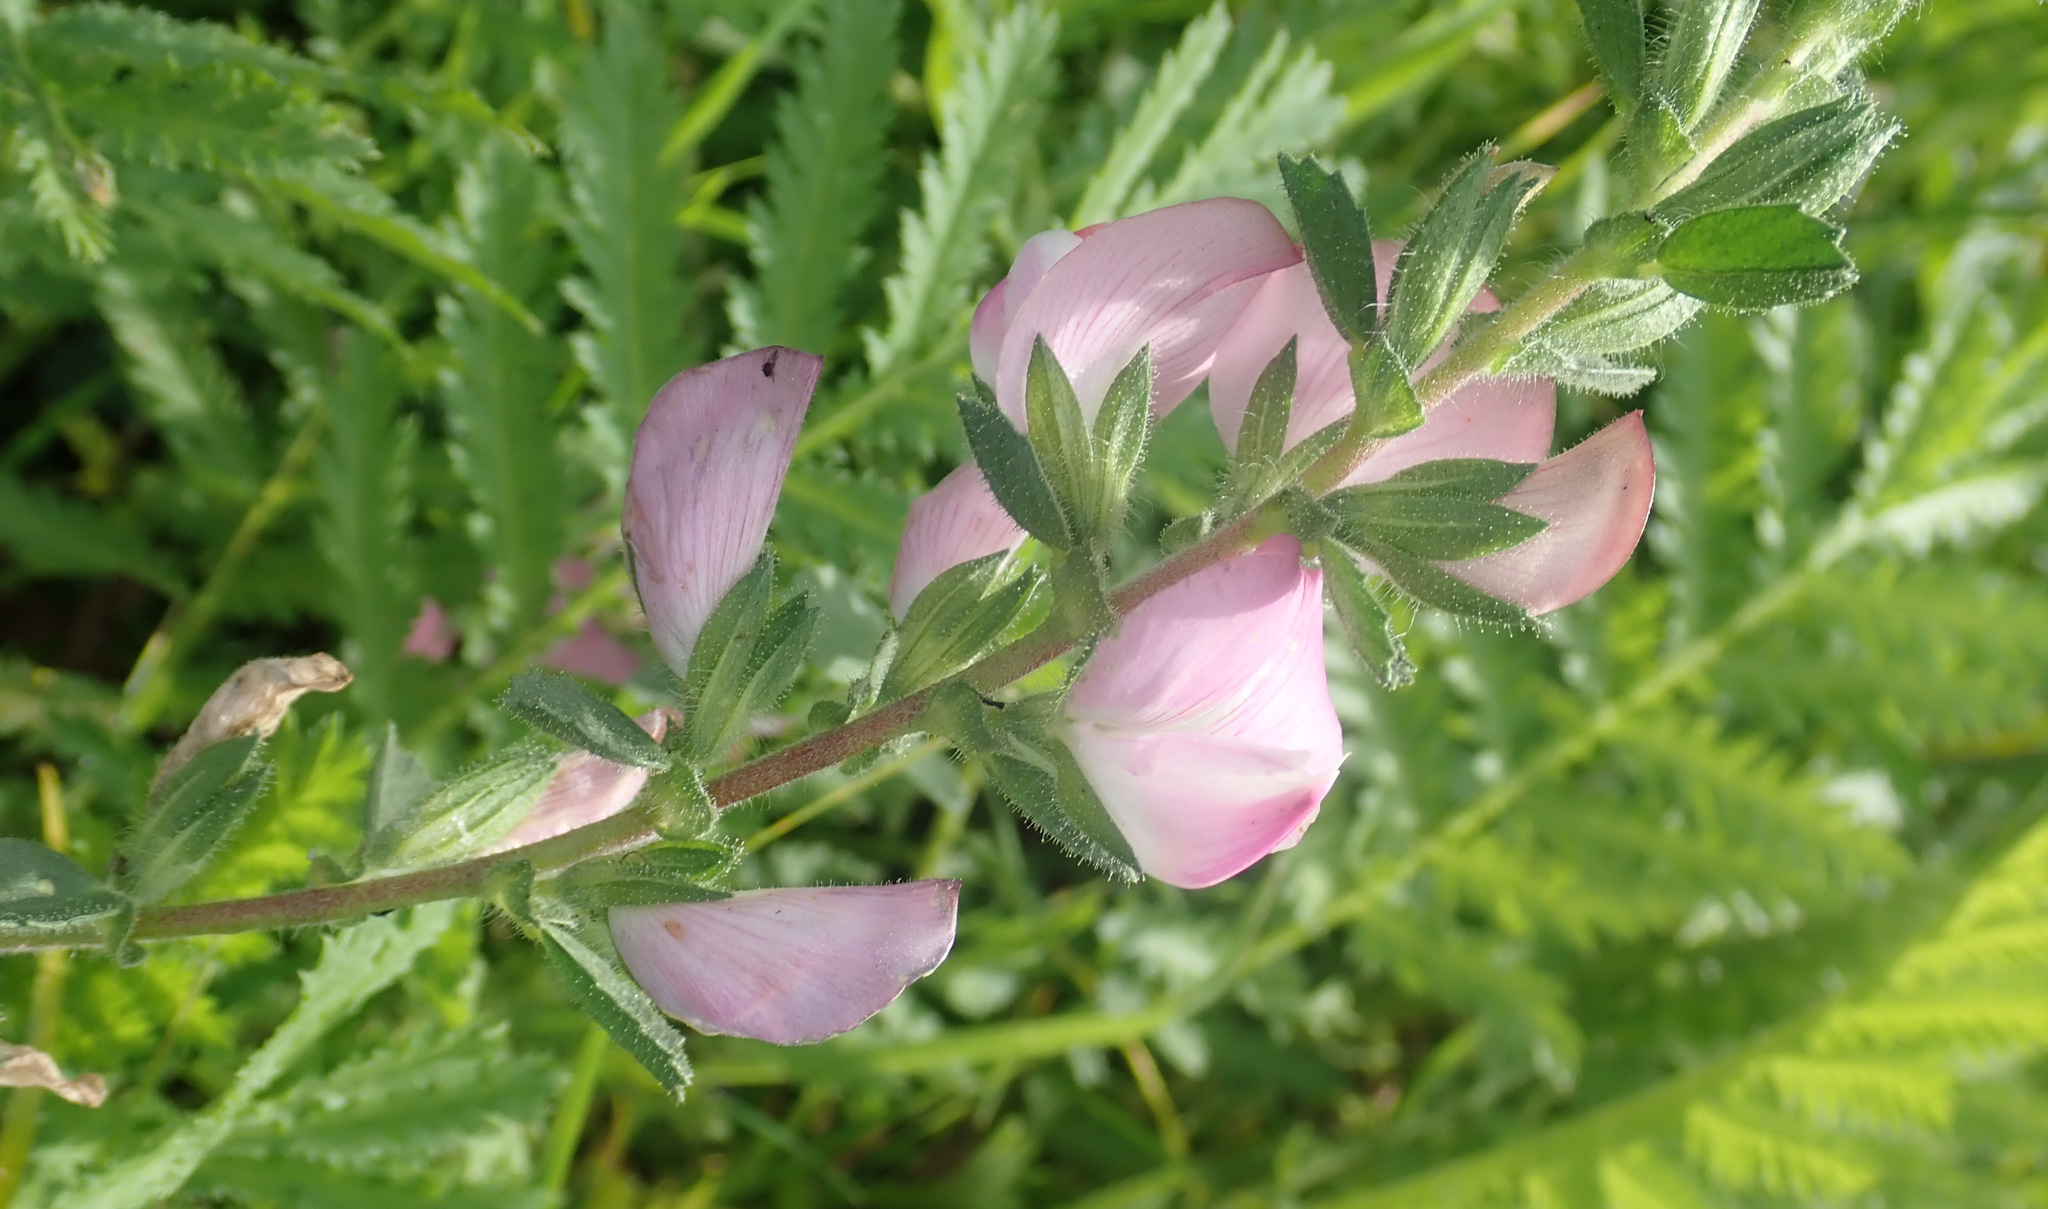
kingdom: Plantae
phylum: Tracheophyta
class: Magnoliopsida
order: Fabales
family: Fabaceae
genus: Ononis
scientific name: Ononis spinosa
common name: Spiny restharrow
